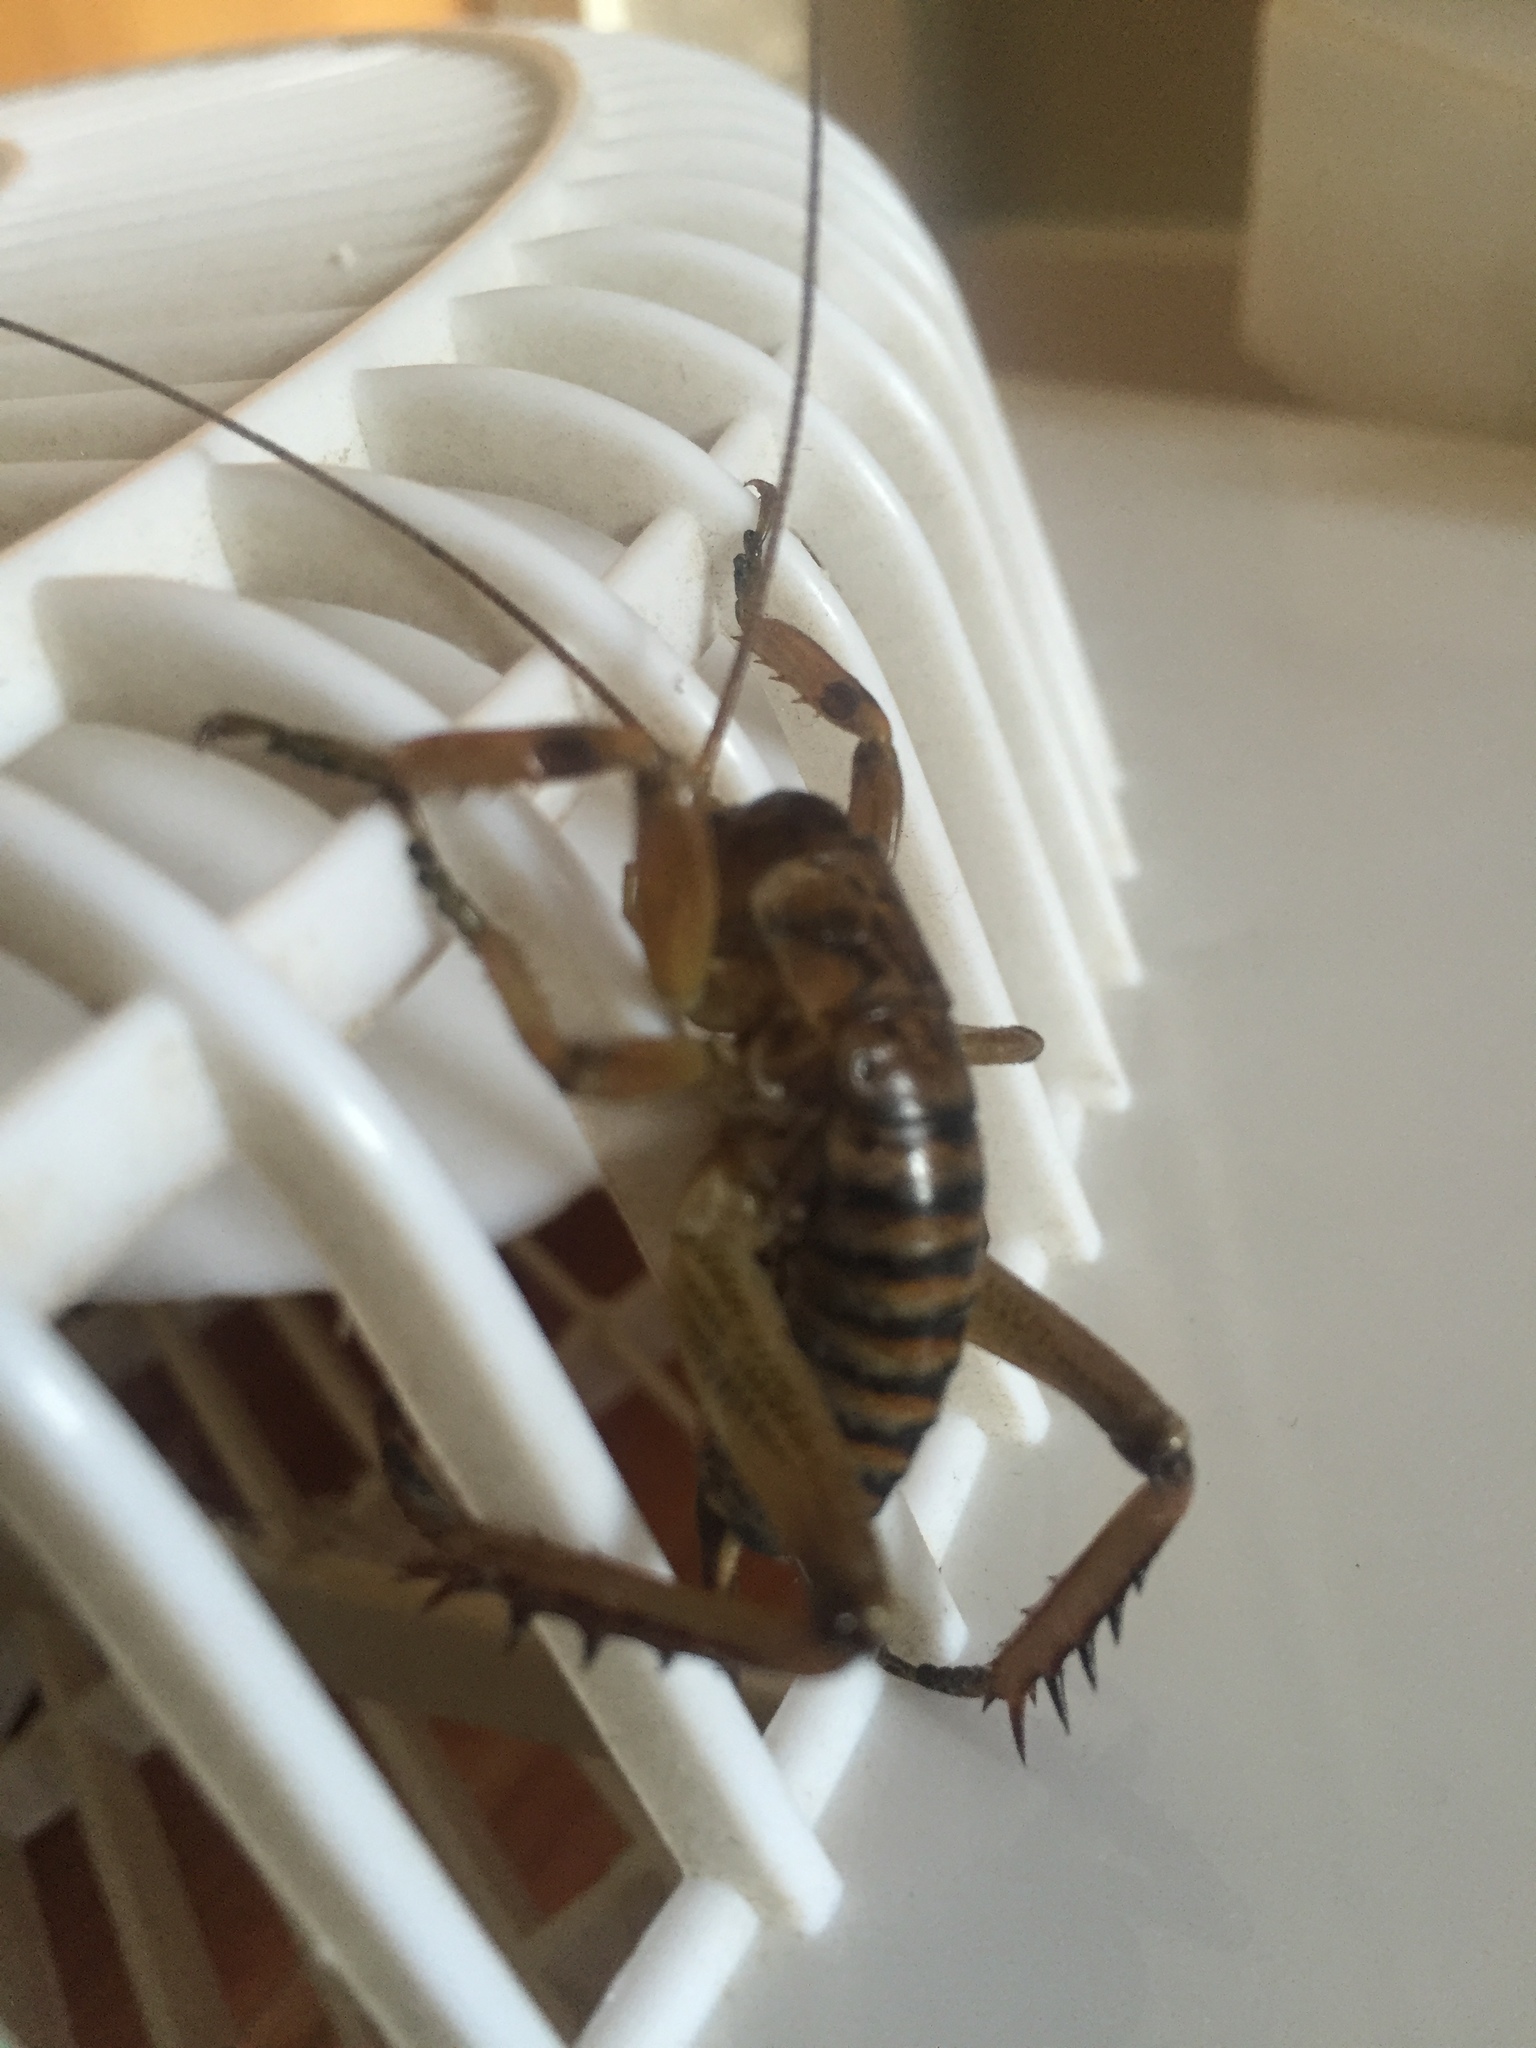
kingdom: Animalia
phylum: Arthropoda
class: Insecta
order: Orthoptera
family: Anostostomatidae
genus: Hemideina
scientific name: Hemideina femorata
